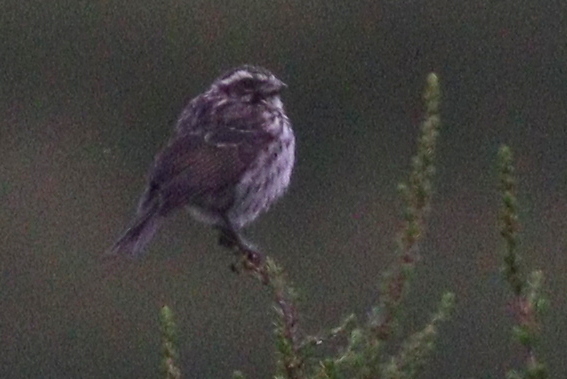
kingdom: Animalia
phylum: Chordata
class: Aves
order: Passeriformes
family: Fringillidae
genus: Crithagra
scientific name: Crithagra striolata
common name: Streaky seedeater
